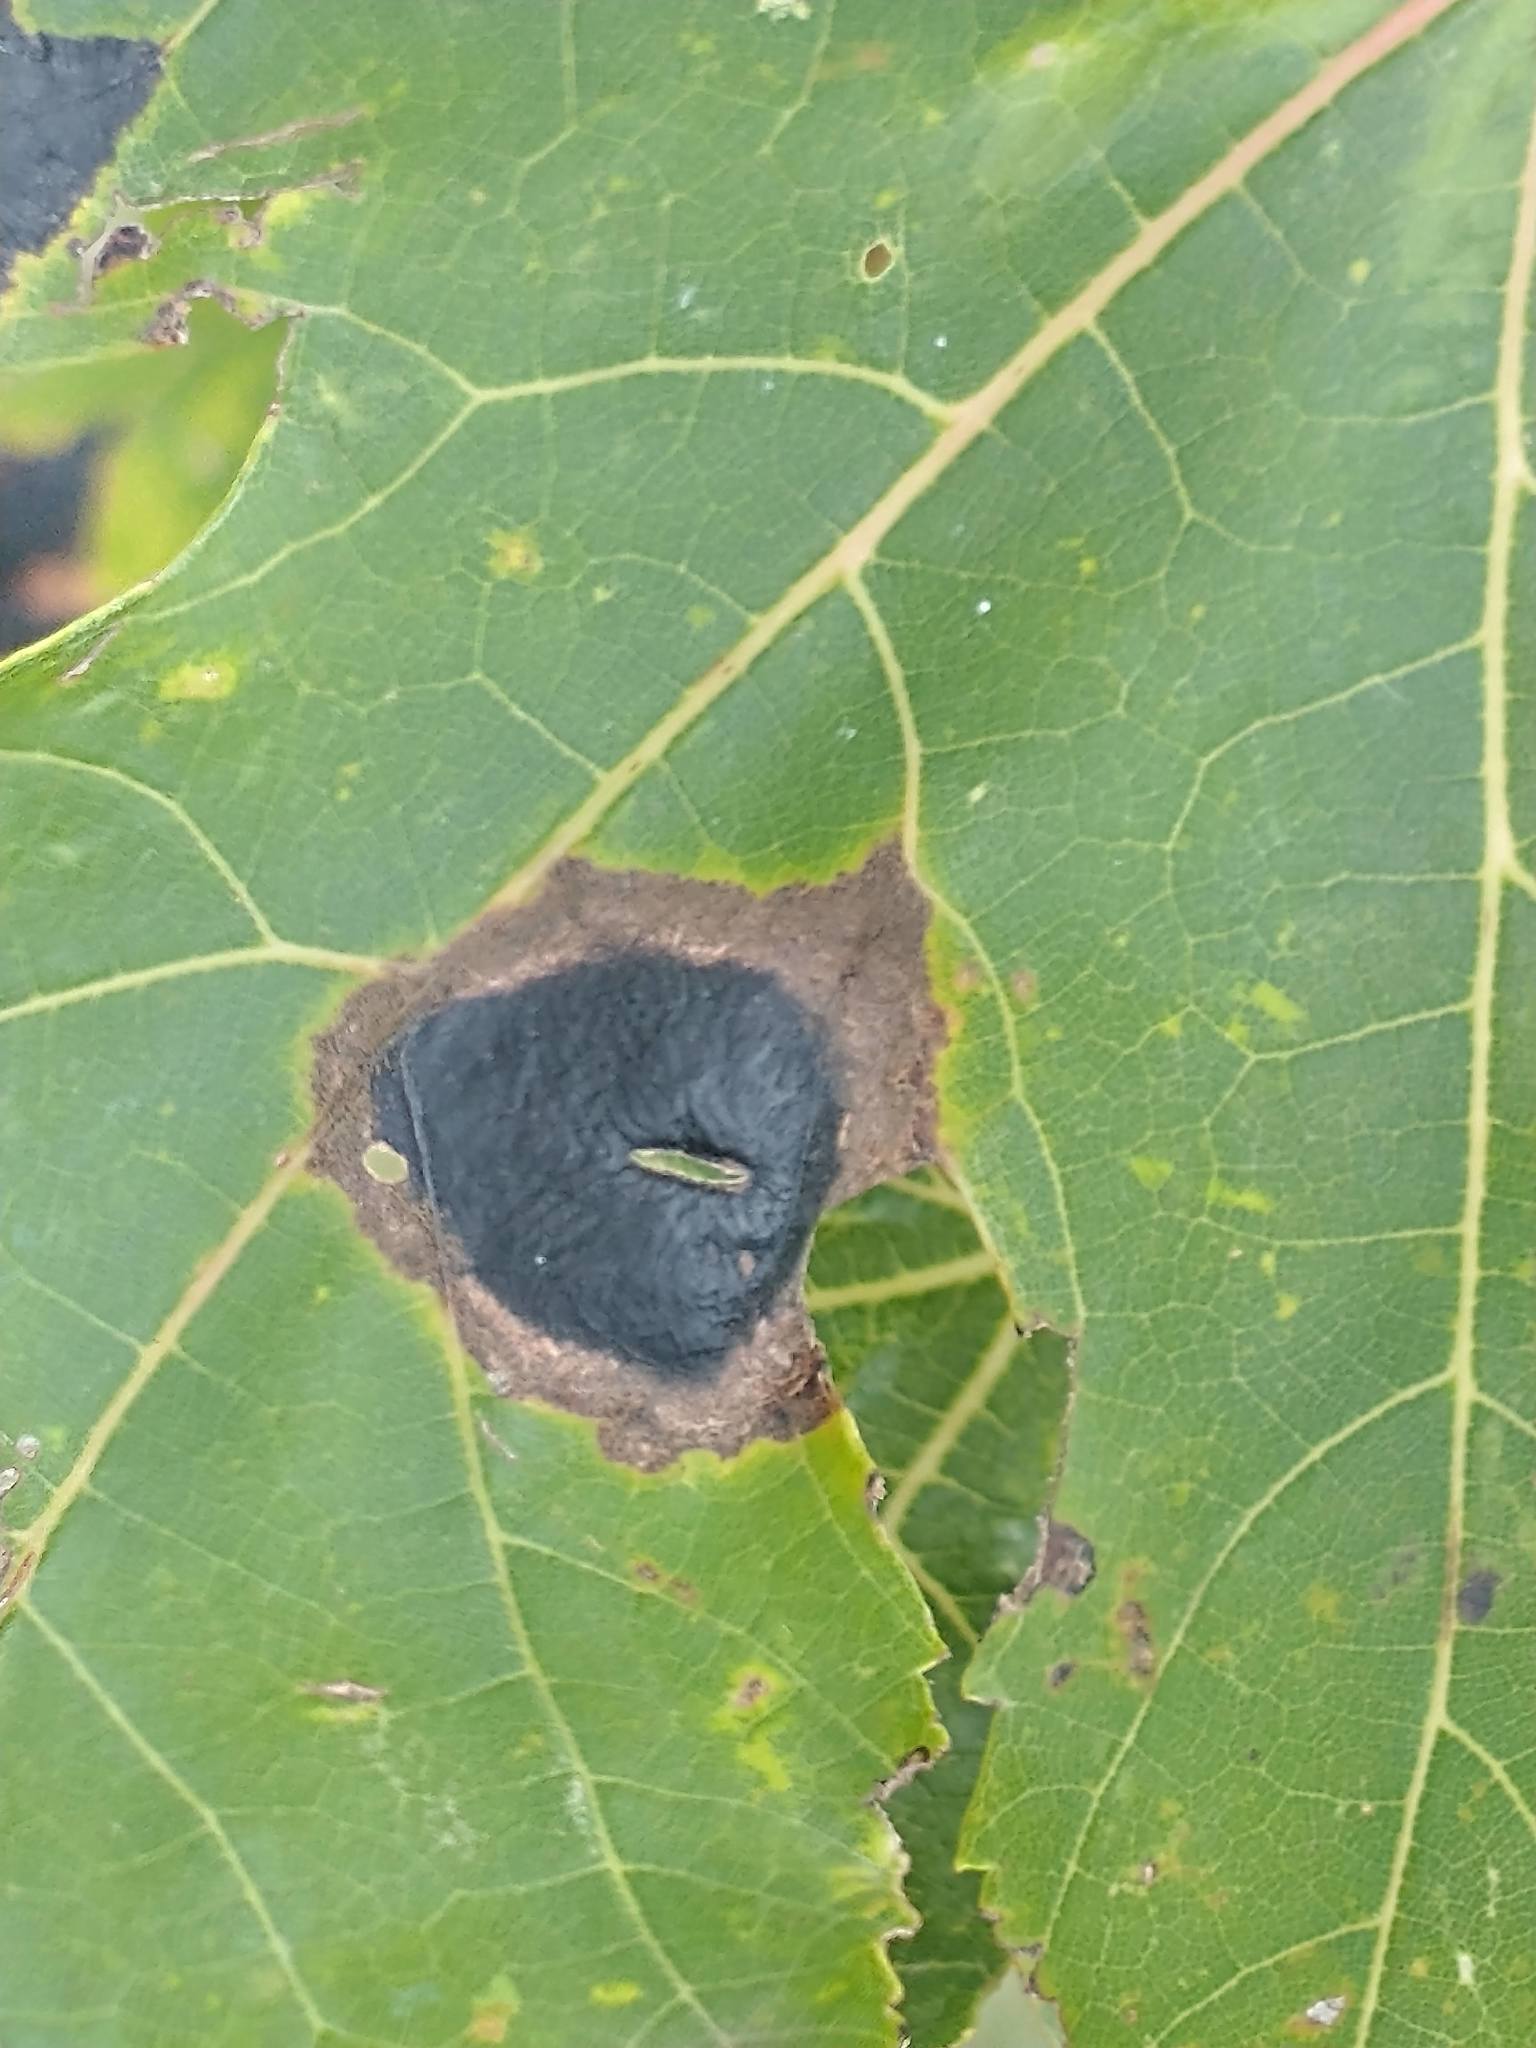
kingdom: Fungi
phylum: Ascomycota
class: Leotiomycetes
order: Rhytismatales
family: Rhytismataceae
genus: Rhytisma
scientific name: Rhytisma americanum
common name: American tar spot
